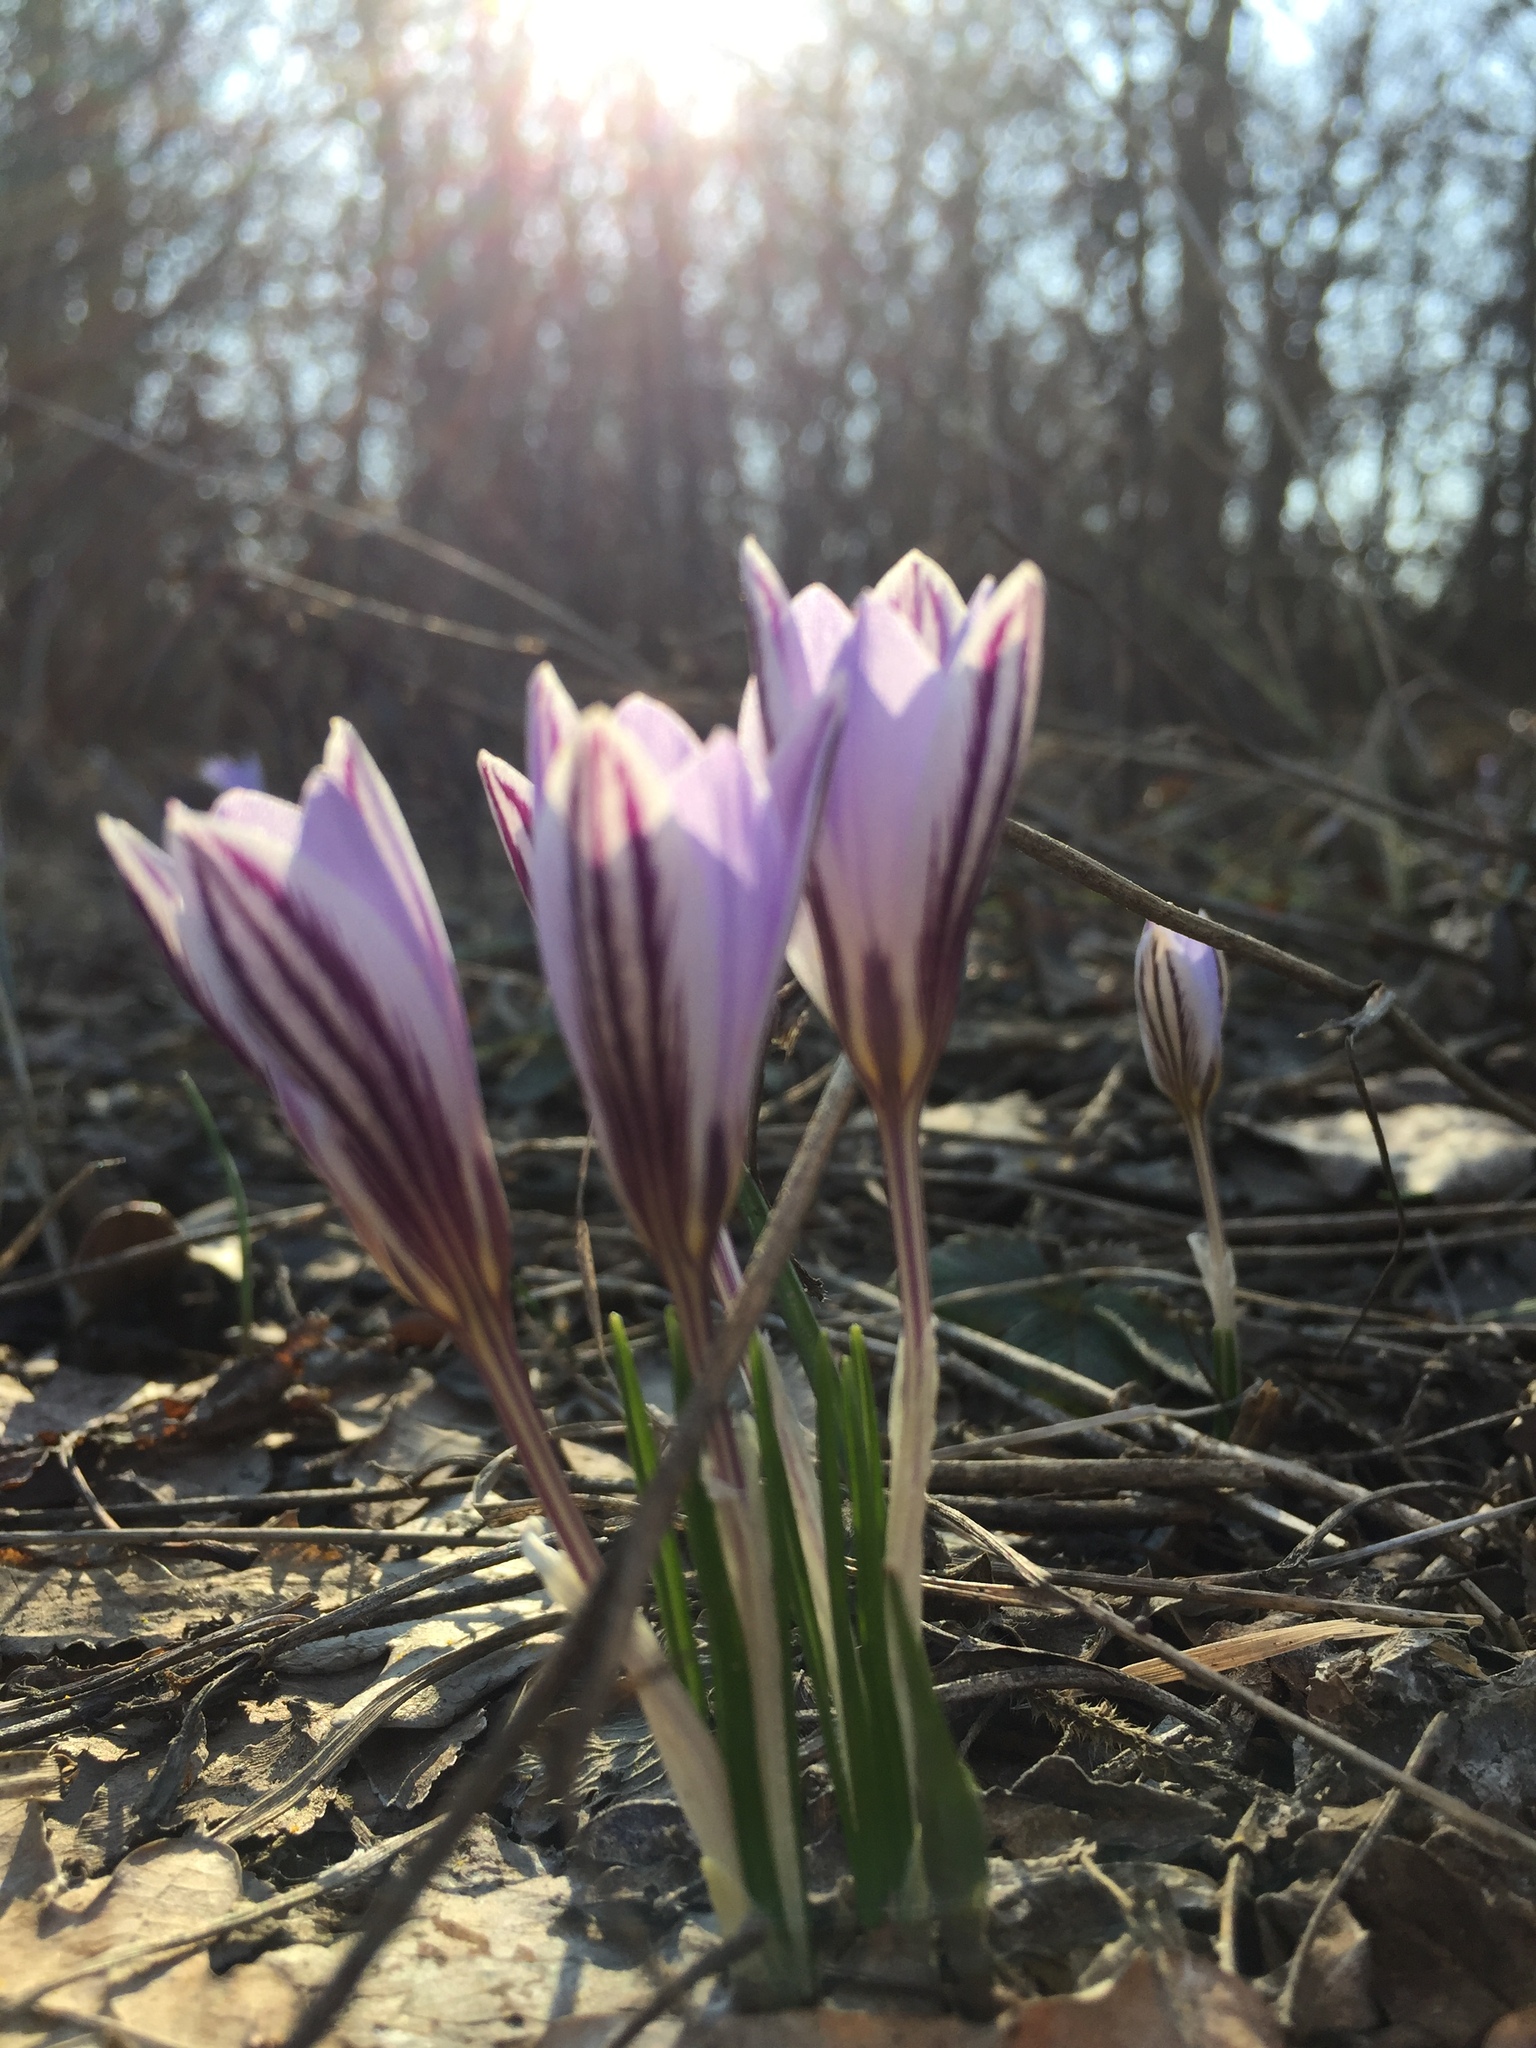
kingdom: Plantae
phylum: Tracheophyta
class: Liliopsida
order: Asparagales
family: Iridaceae
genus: Crocus
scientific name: Crocus reticulatus
